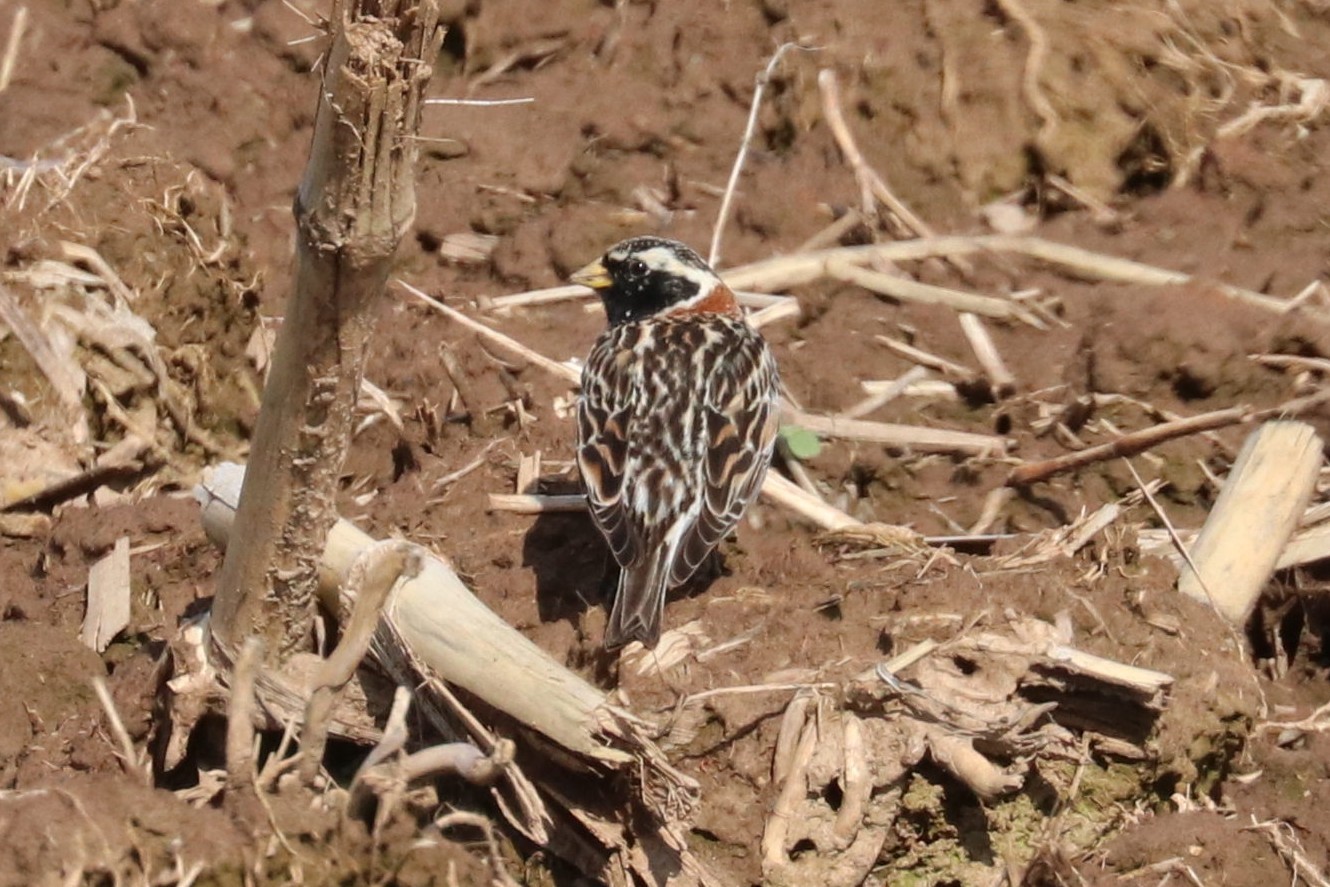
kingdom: Animalia
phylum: Chordata
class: Aves
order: Passeriformes
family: Calcariidae
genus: Calcarius
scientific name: Calcarius lapponicus
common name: Lapland longspur
